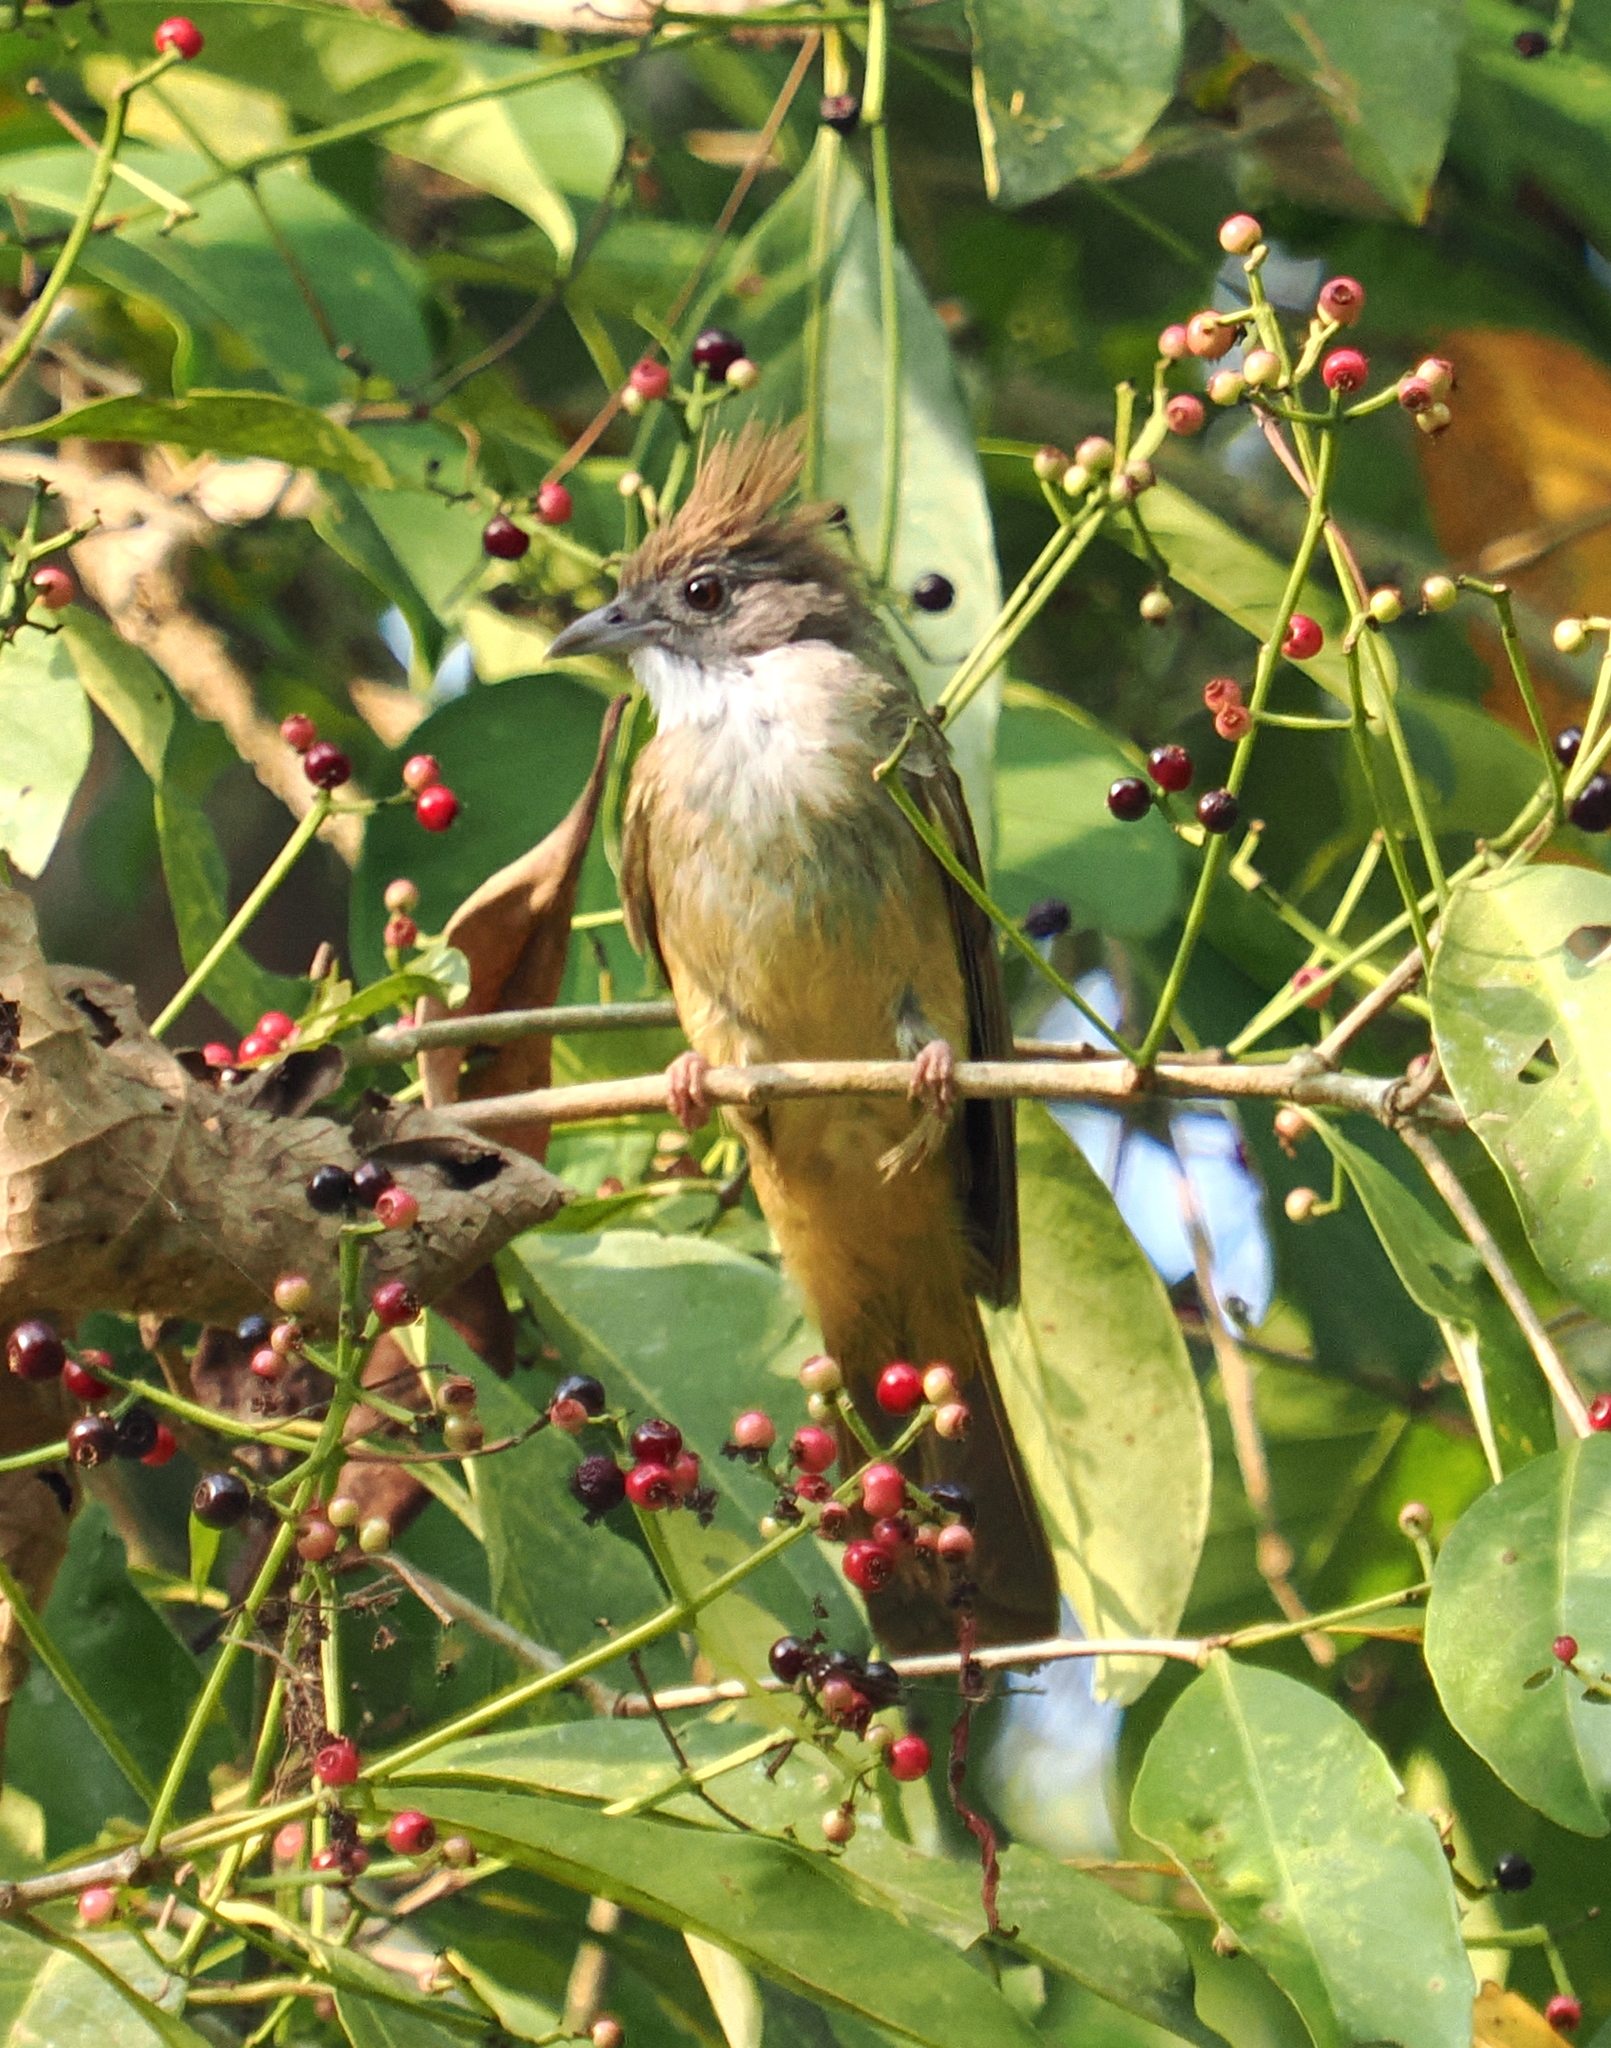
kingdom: Animalia
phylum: Chordata
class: Aves
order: Passeriformes
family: Pycnonotidae
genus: Alophoixus
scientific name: Alophoixus pallidus
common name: Puff-throated bulbul
